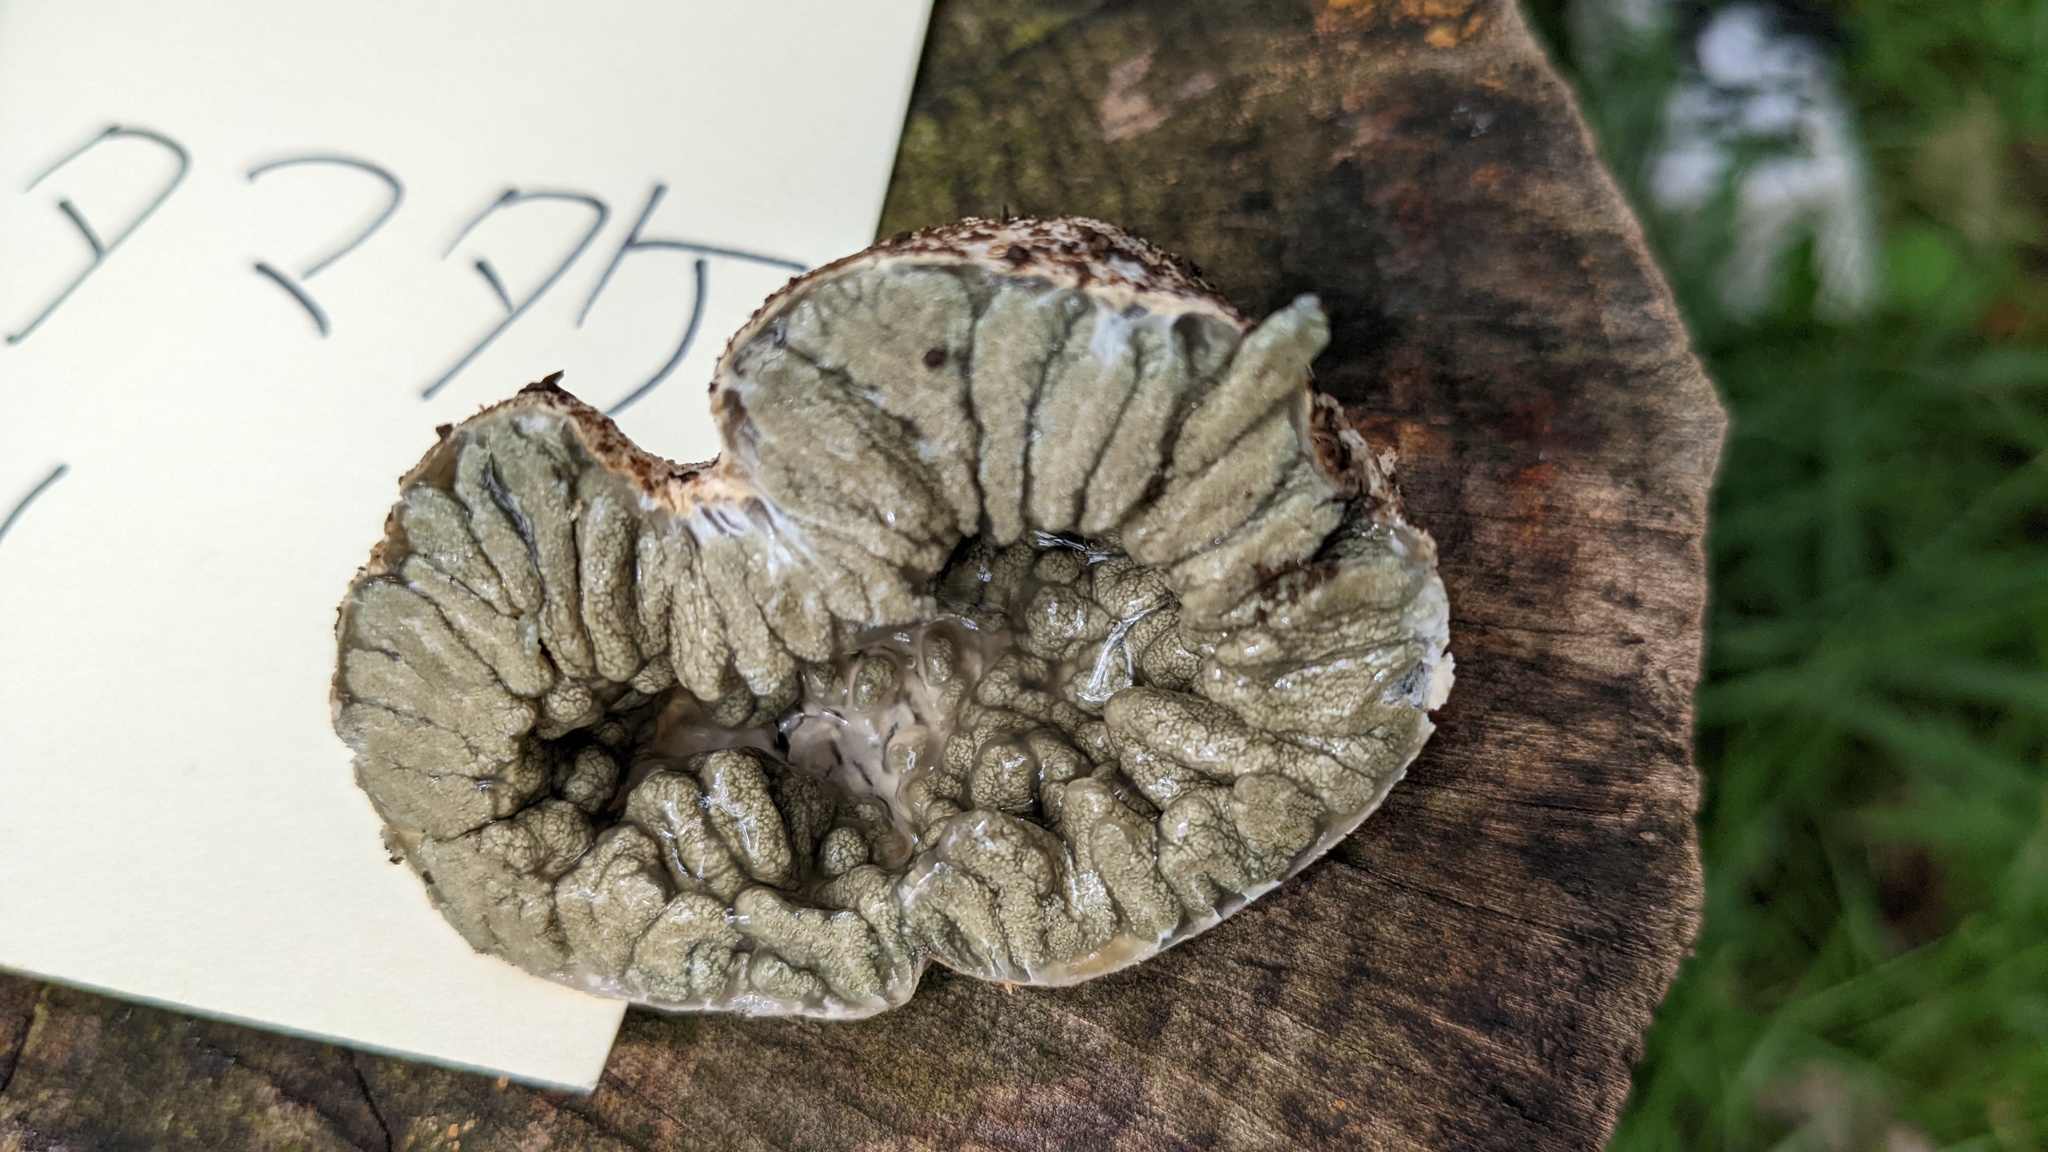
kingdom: Fungi
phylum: Basidiomycota
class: Agaricomycetes
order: Hysterangiales
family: Phallogastraceae
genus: Protubera
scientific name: Protubera nipponica
